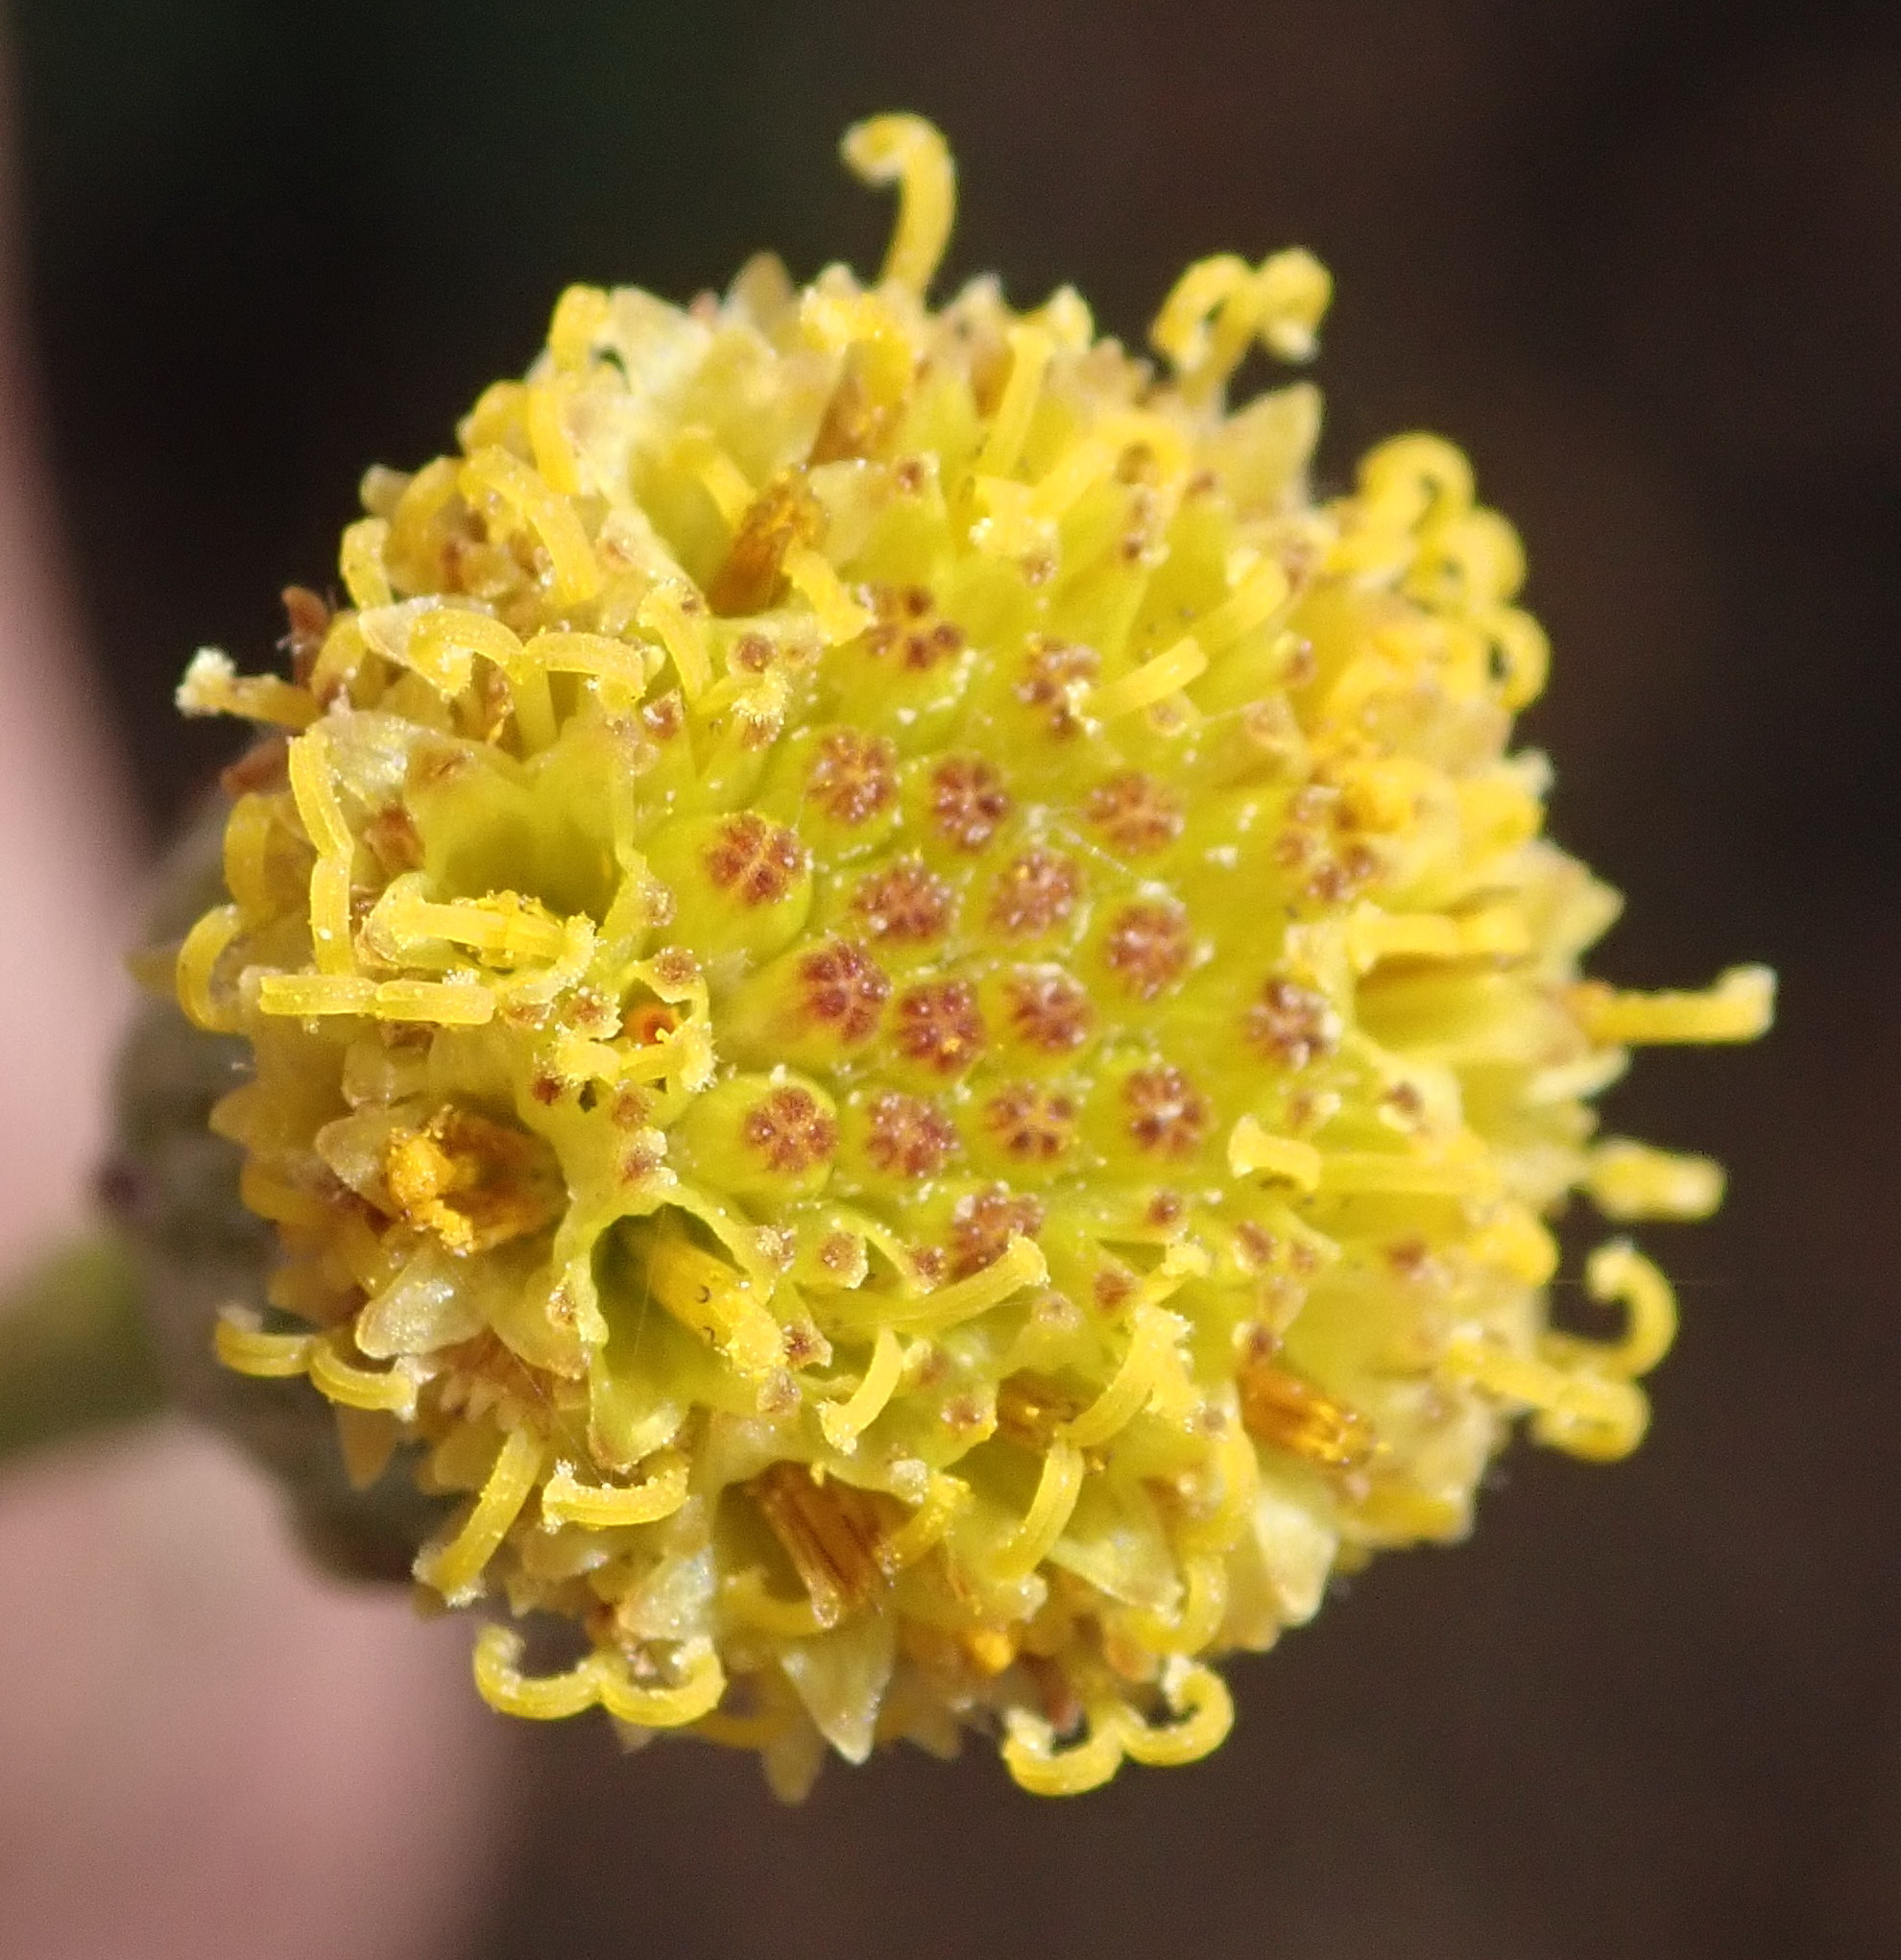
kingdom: Plantae
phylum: Tracheophyta
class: Magnoliopsida
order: Asterales
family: Asteraceae
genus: Senecio
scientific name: Senecio paniculatus
